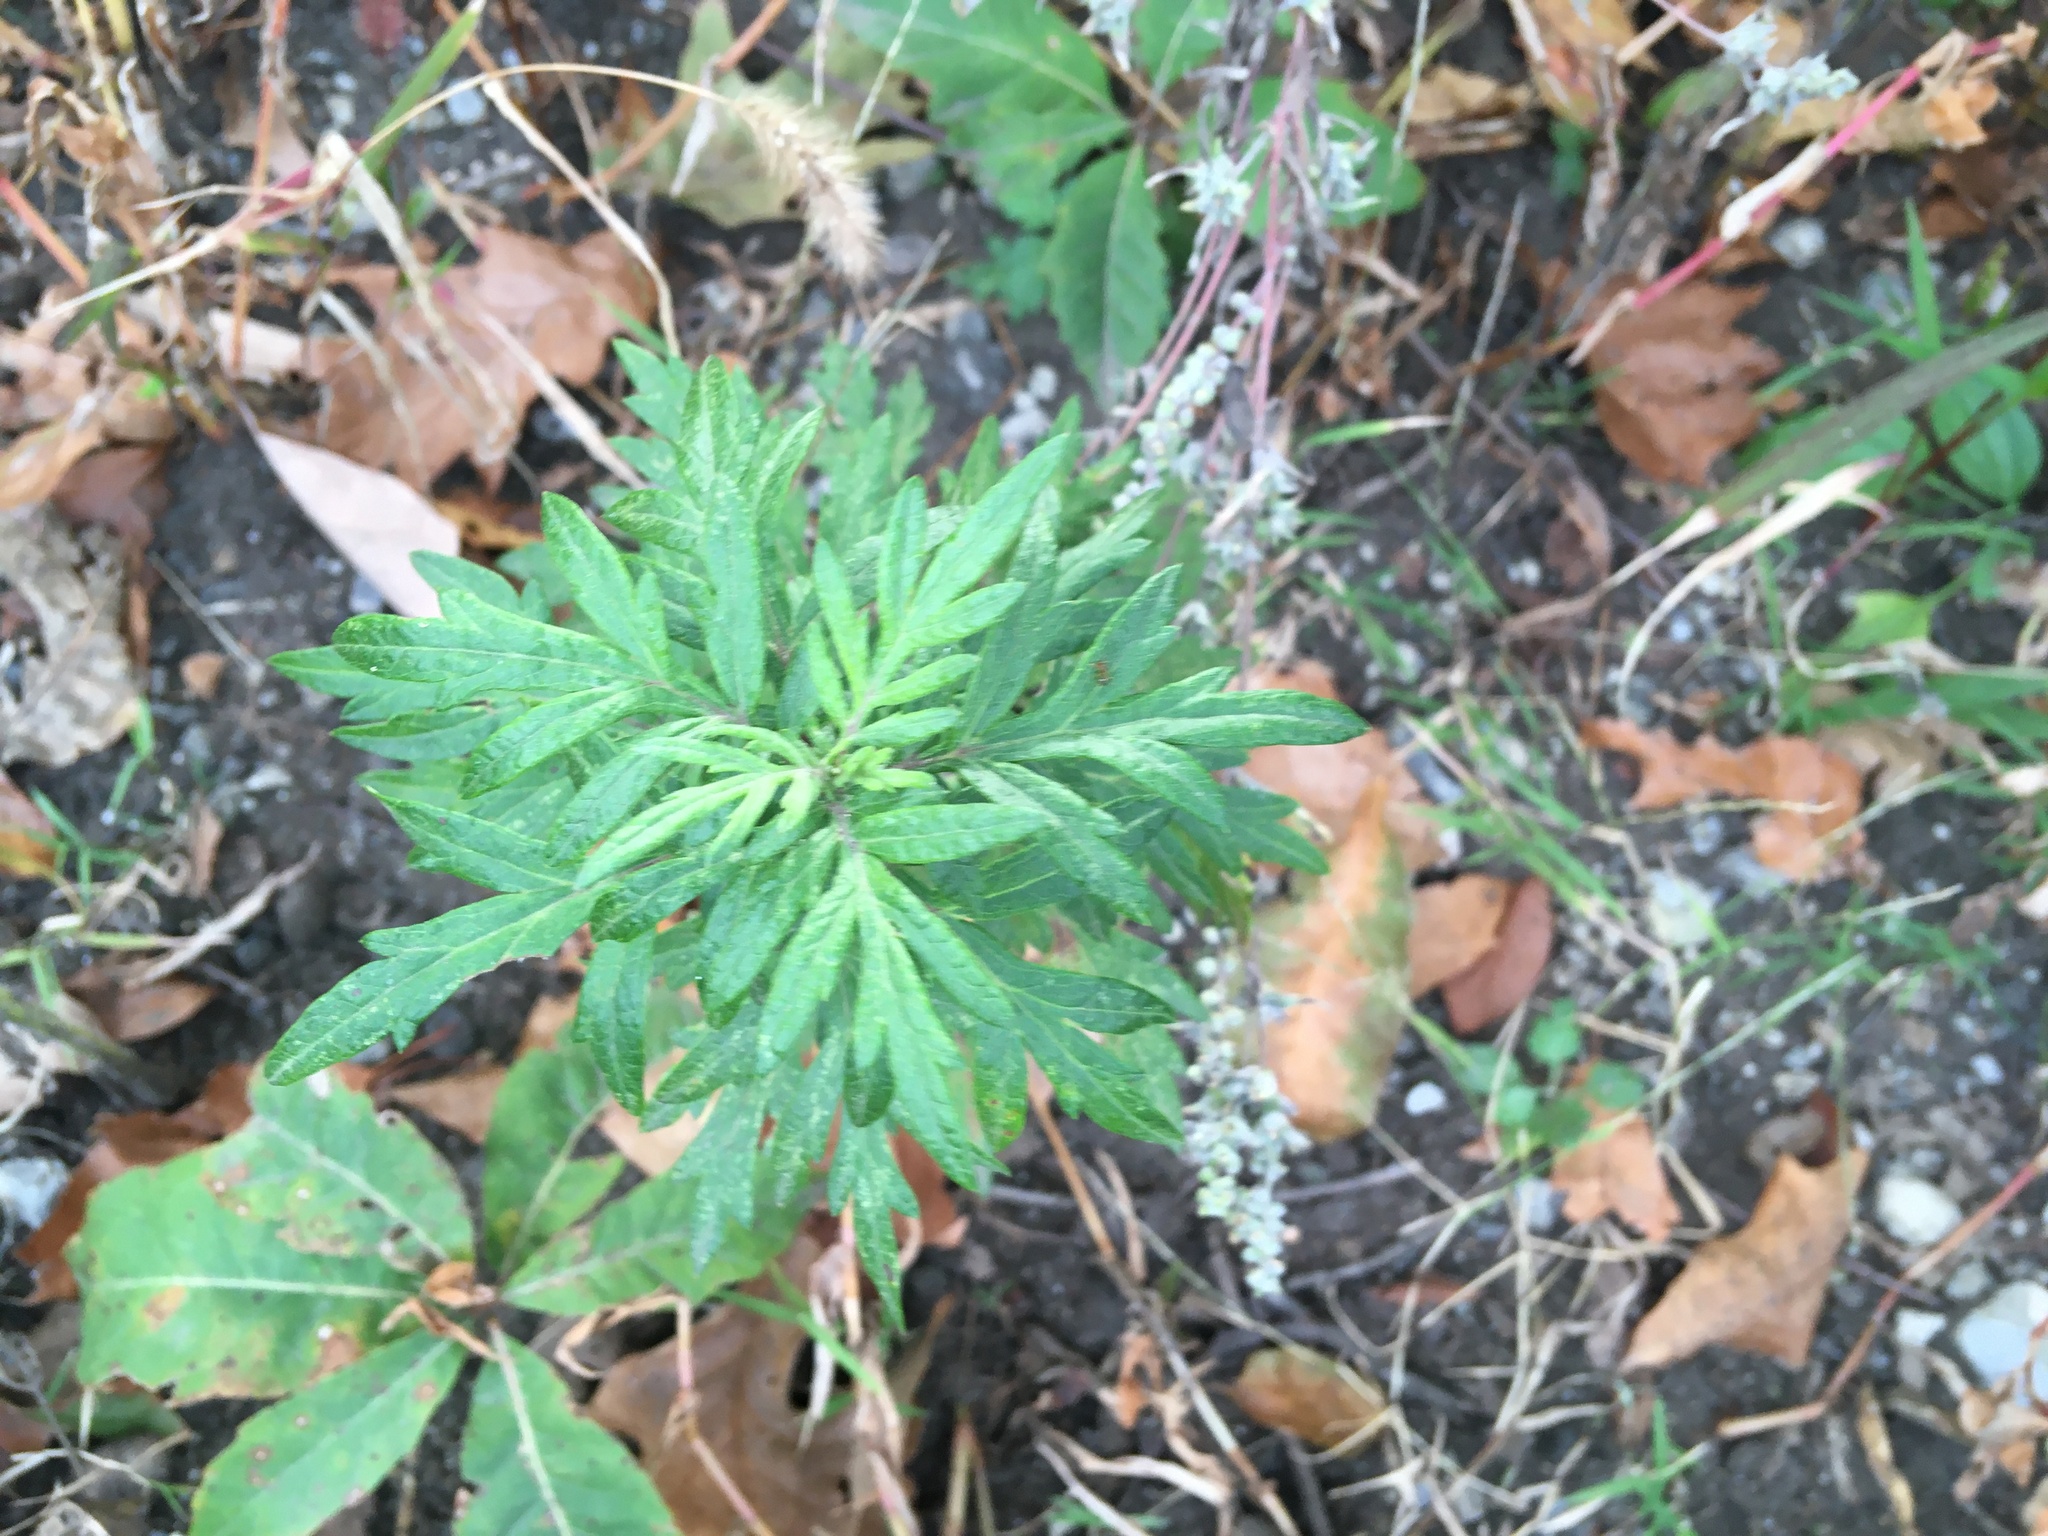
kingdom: Plantae
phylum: Tracheophyta
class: Magnoliopsida
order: Asterales
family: Asteraceae
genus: Artemisia
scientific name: Artemisia vulgaris
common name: Mugwort
